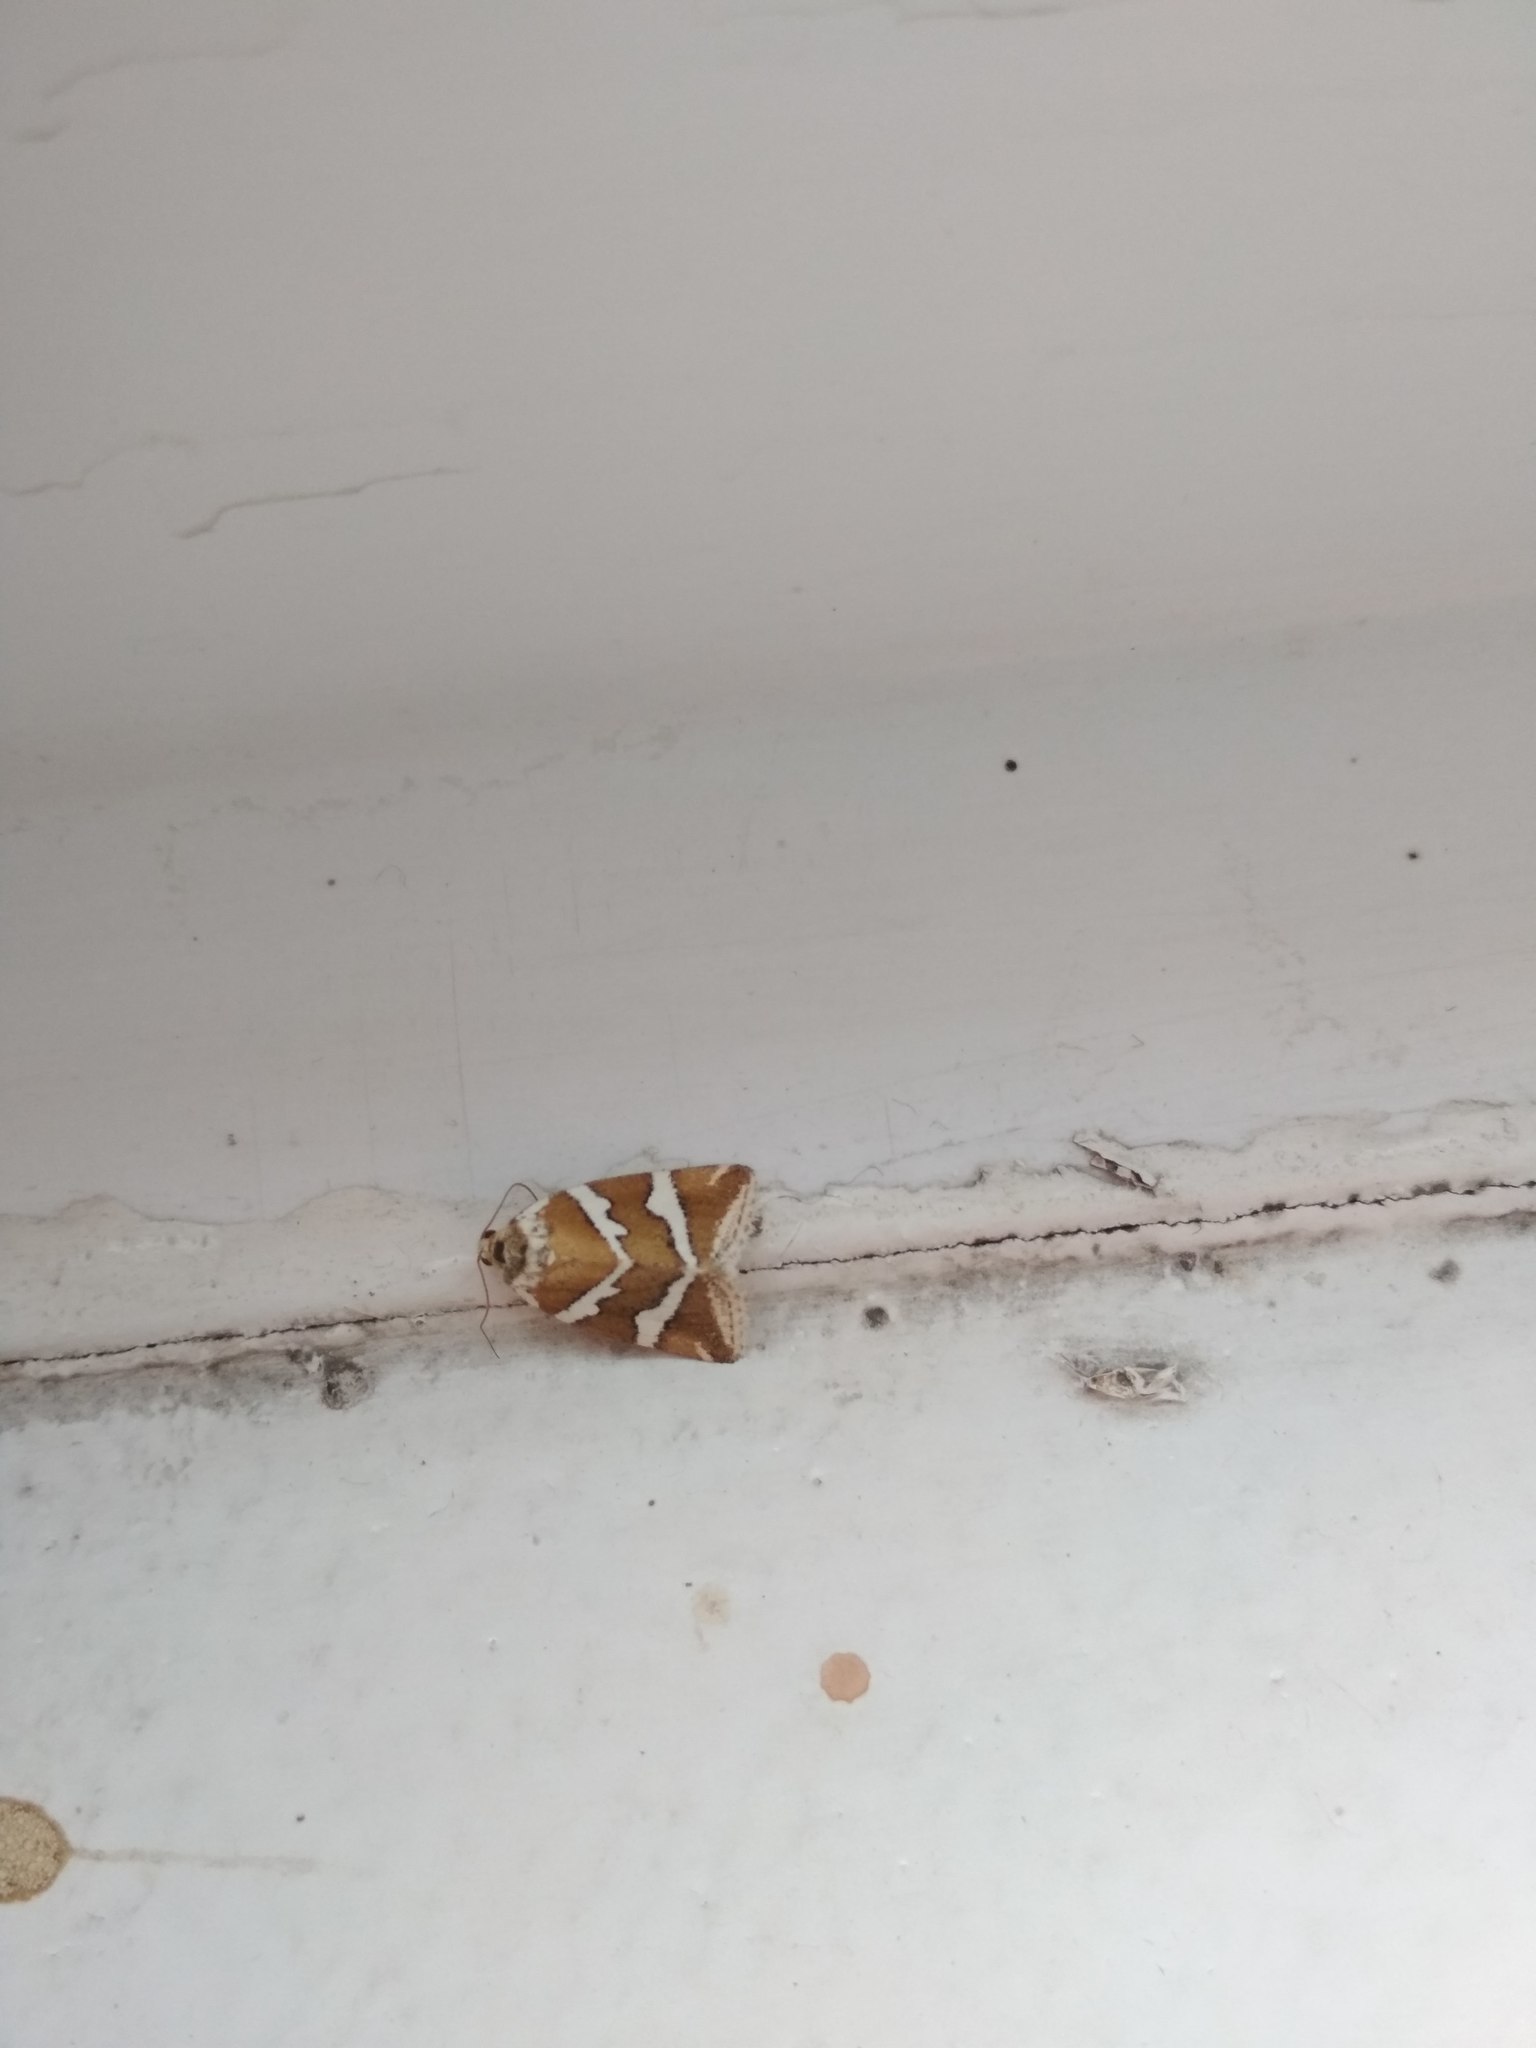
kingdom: Animalia
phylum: Arthropoda
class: Insecta
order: Lepidoptera
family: Noctuidae
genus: Deltote
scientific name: Deltote bankiana
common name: Silver barred
